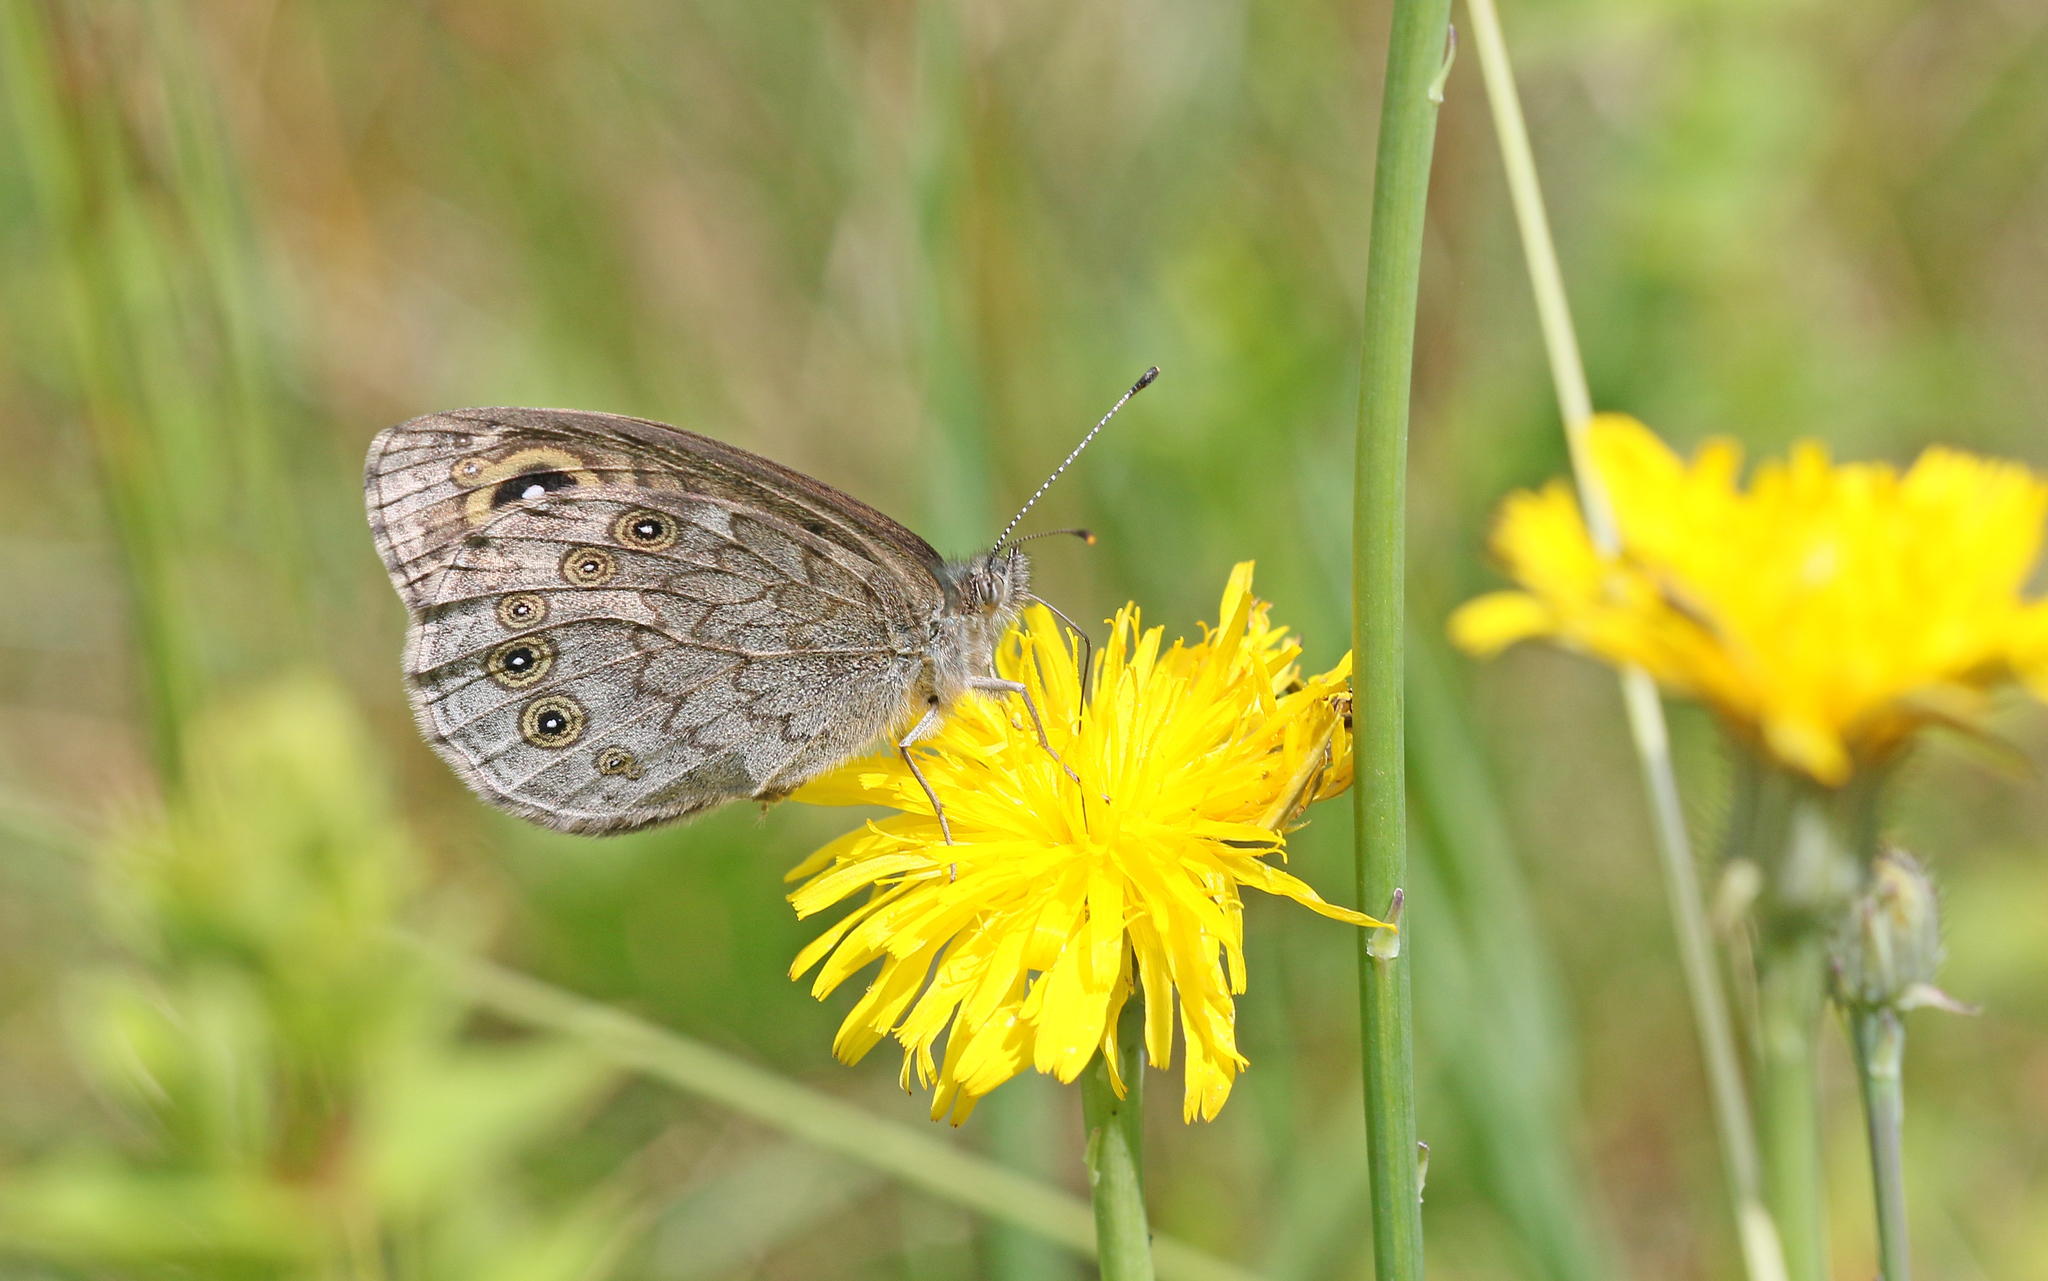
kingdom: Animalia
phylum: Arthropoda
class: Insecta
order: Lepidoptera
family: Nymphalidae
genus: Pararge
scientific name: Pararge Lasiommata maera
